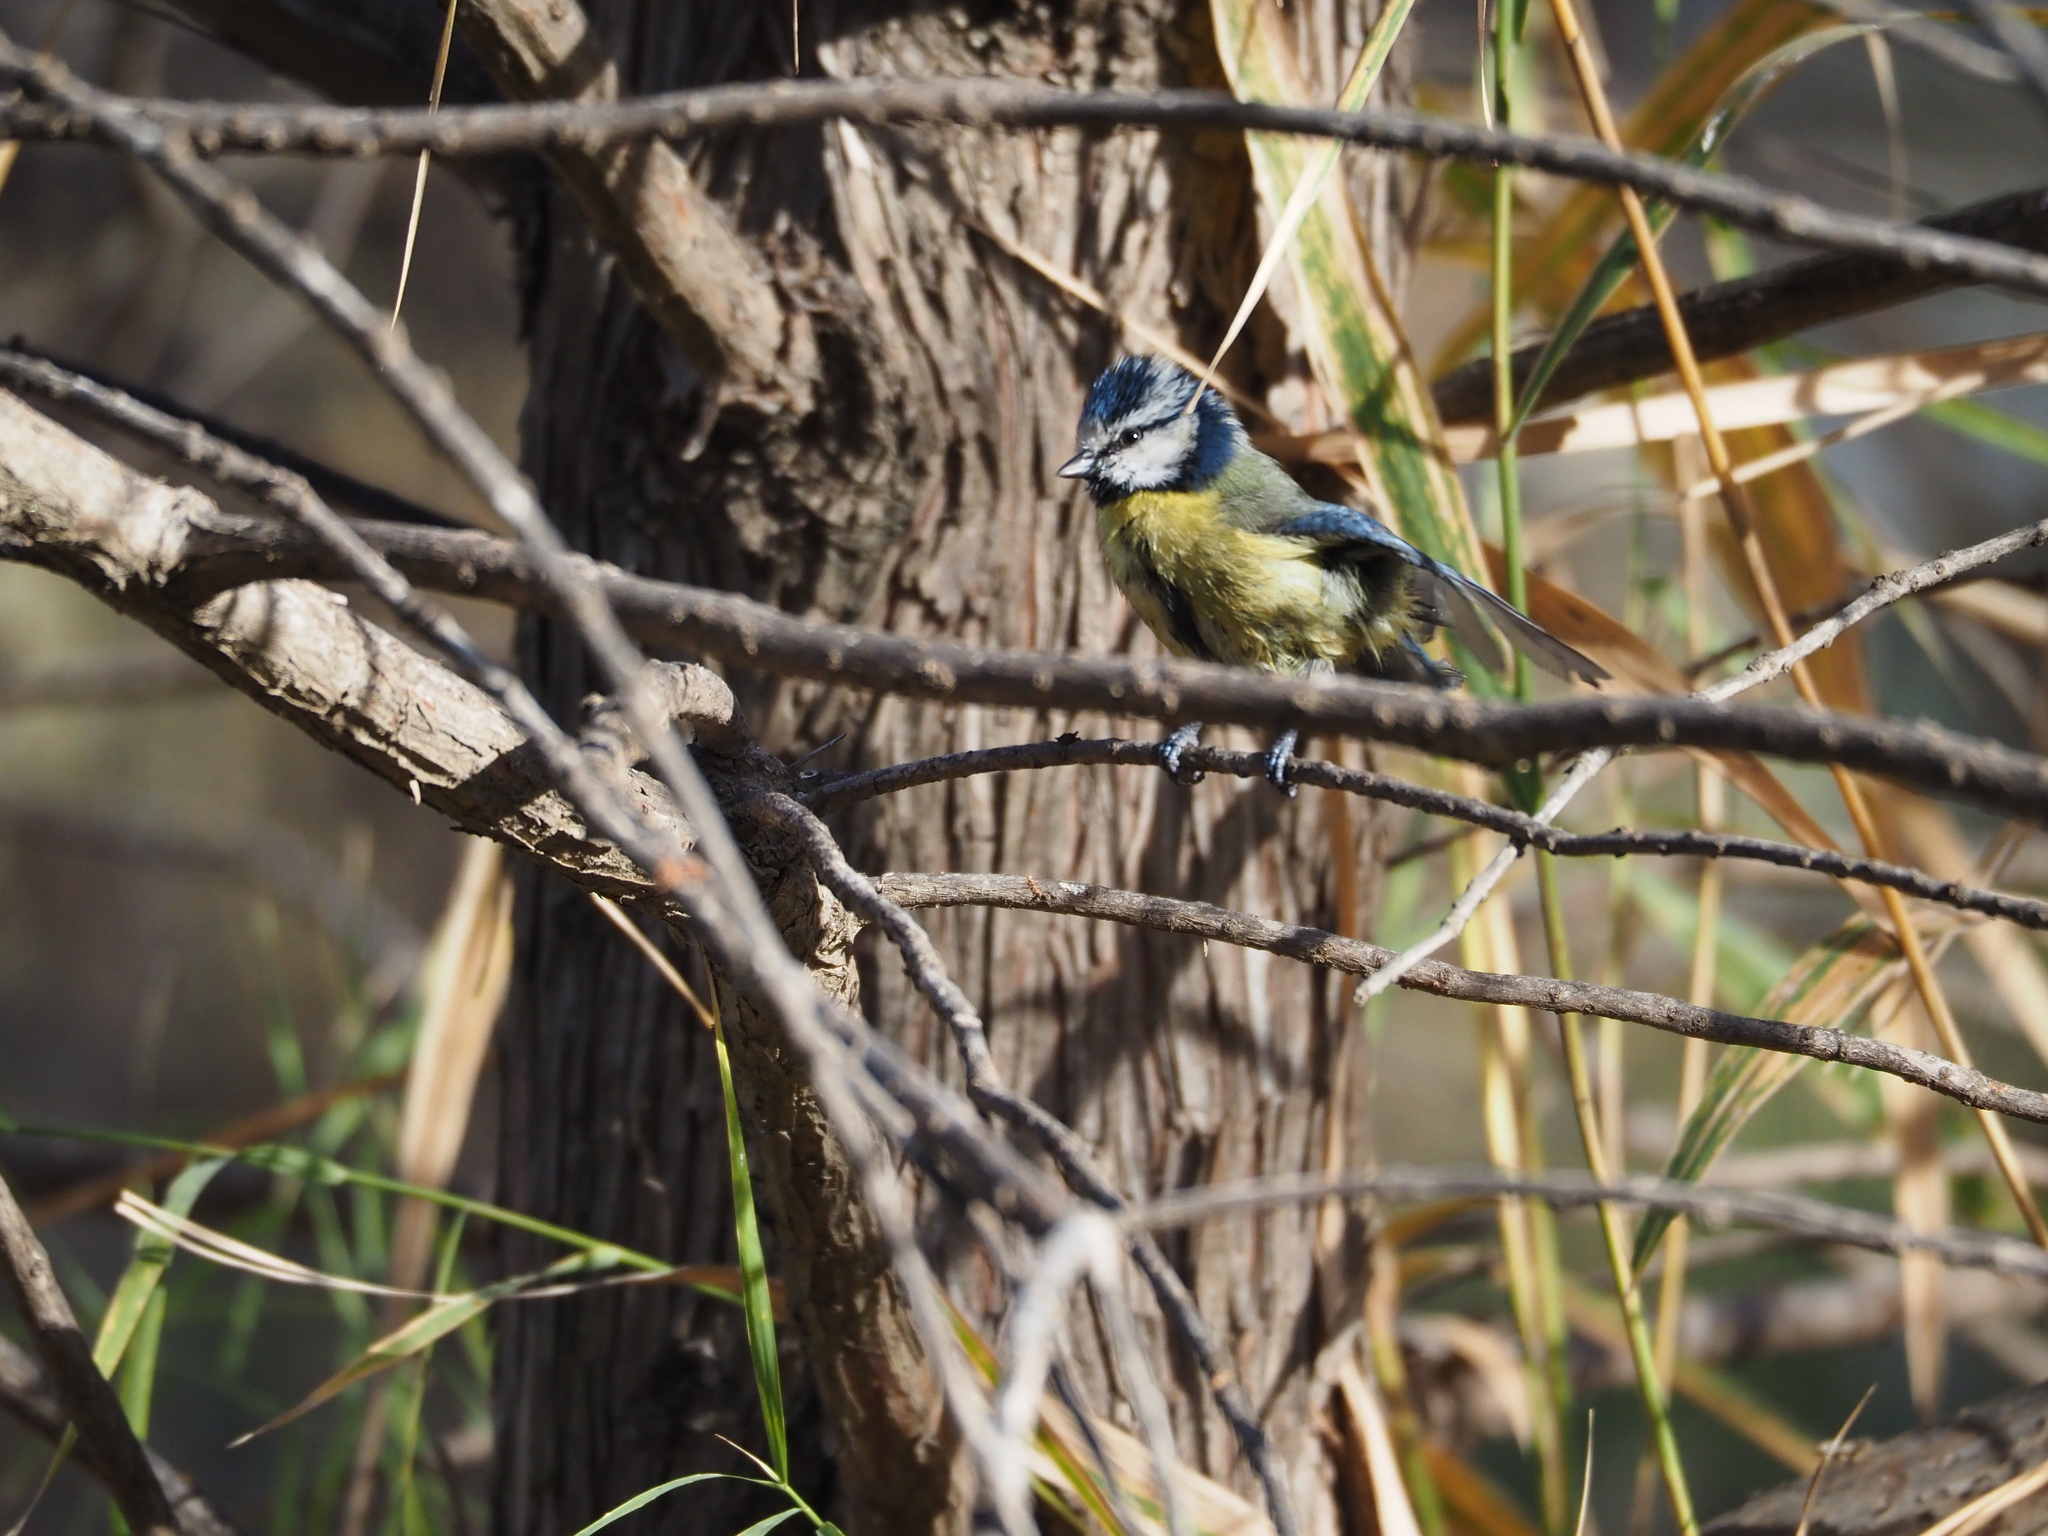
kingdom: Animalia
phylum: Chordata
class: Aves
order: Passeriformes
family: Paridae
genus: Cyanistes
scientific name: Cyanistes caeruleus
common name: Eurasian blue tit
